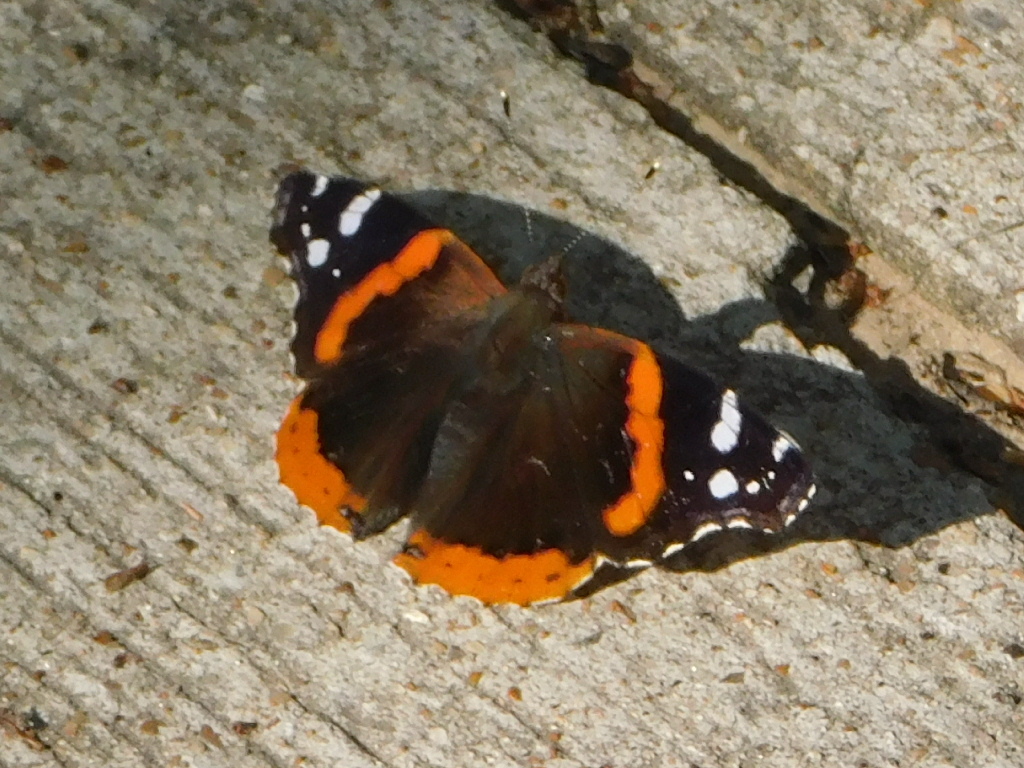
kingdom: Animalia
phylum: Arthropoda
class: Insecta
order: Lepidoptera
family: Nymphalidae
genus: Vanessa
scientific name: Vanessa atalanta
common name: Red admiral
